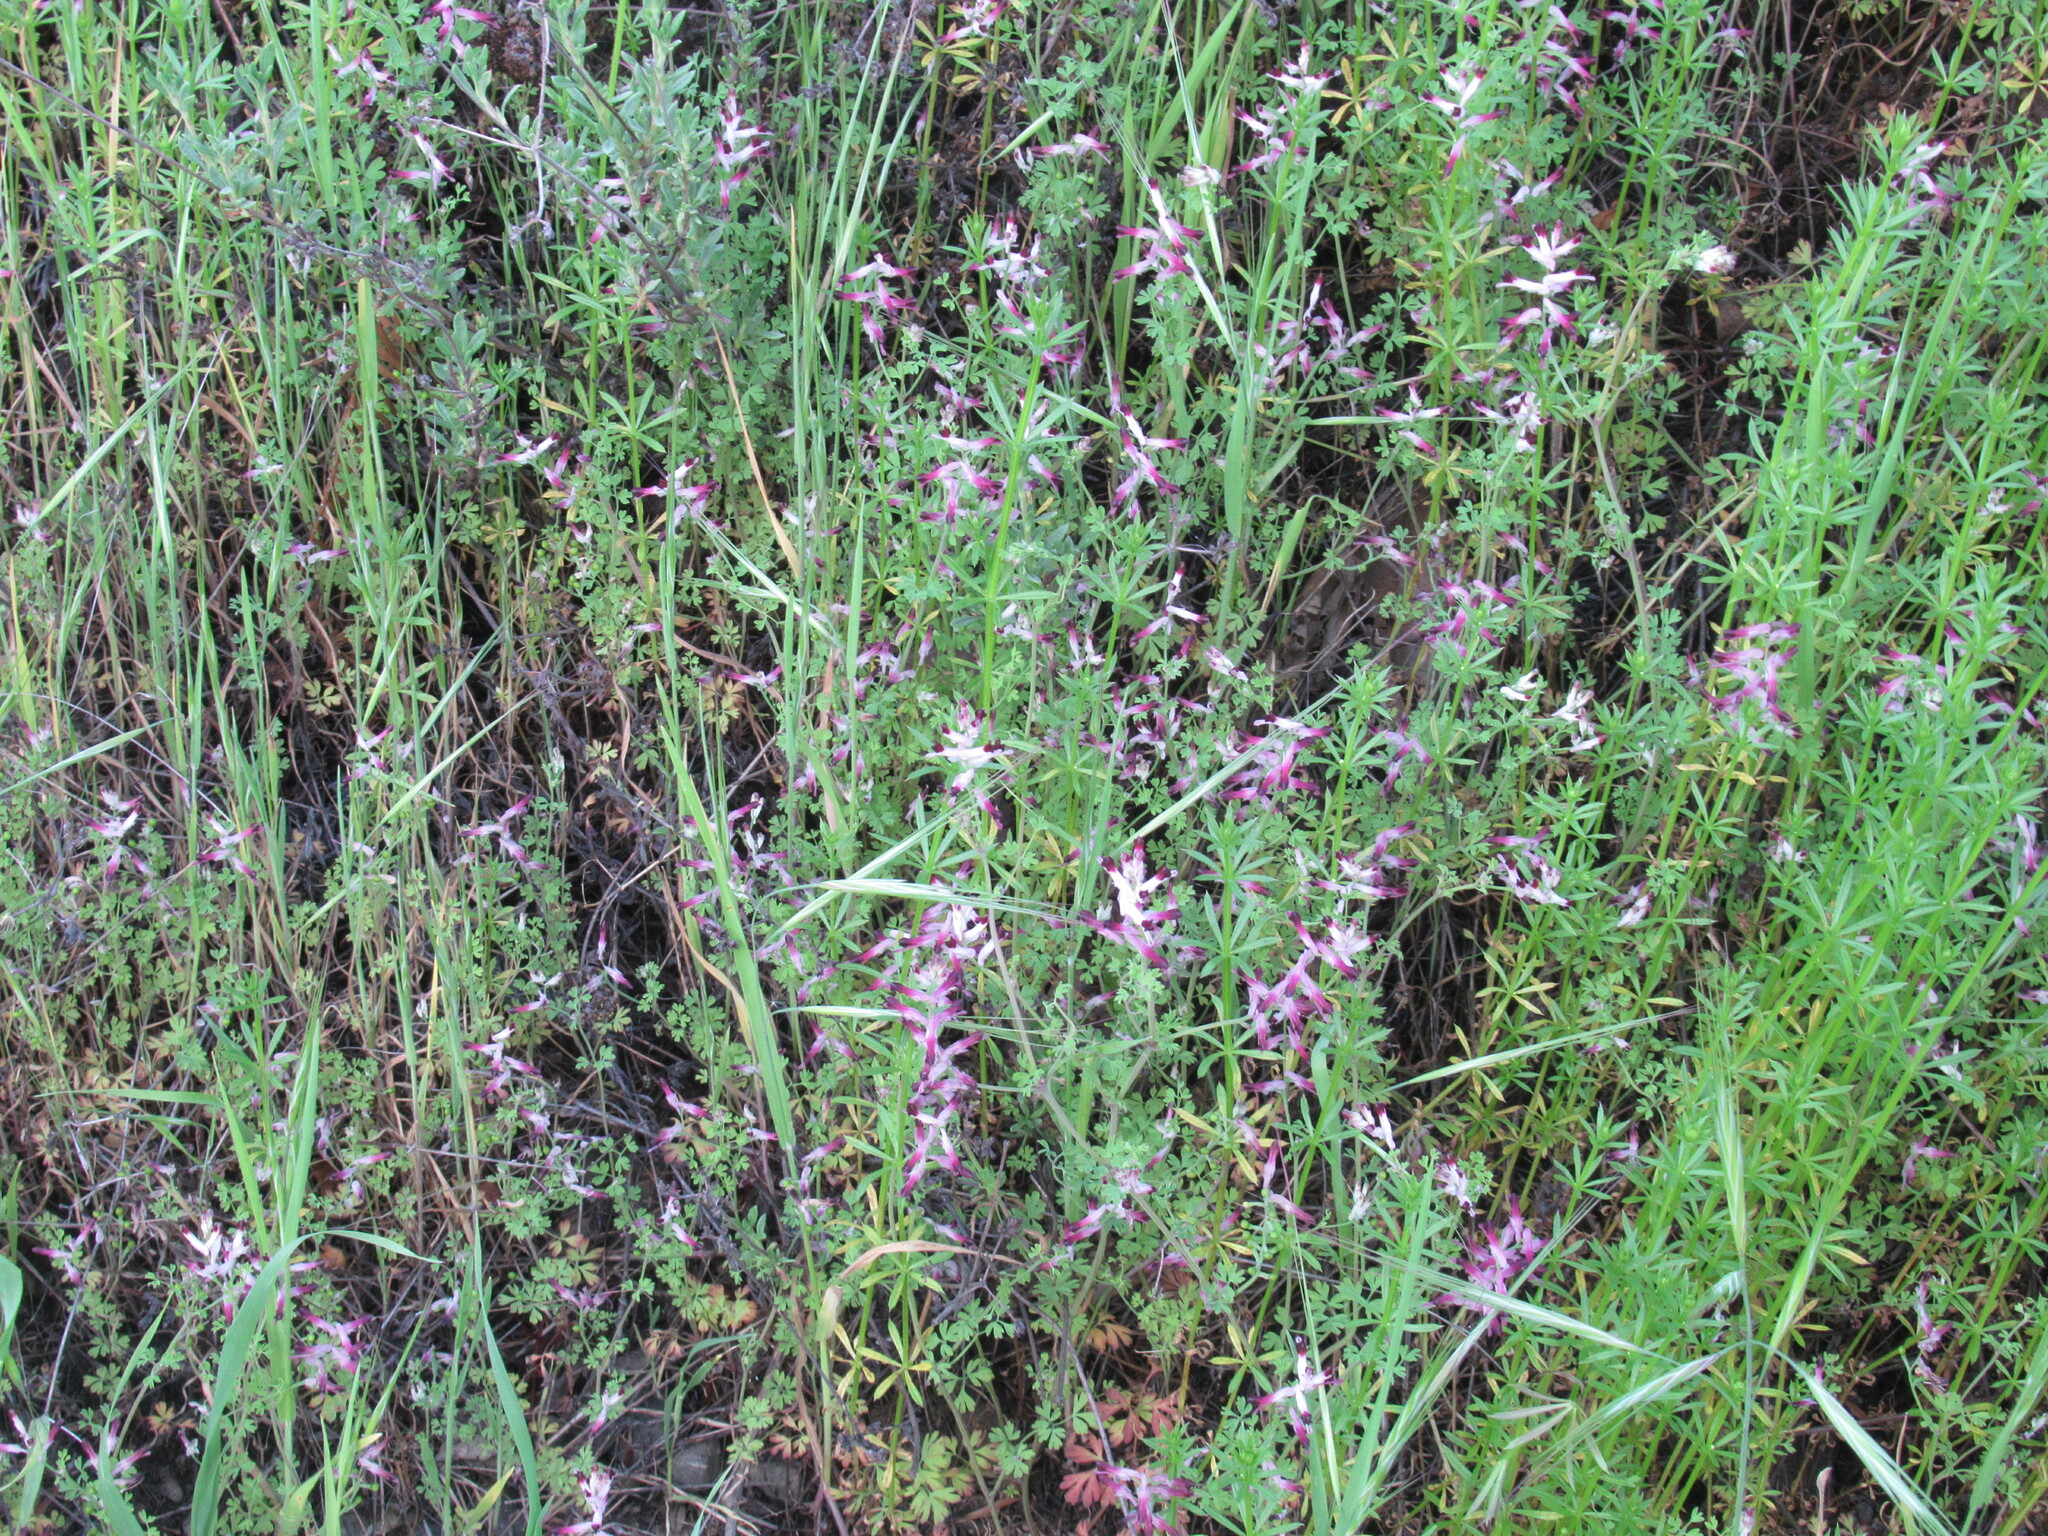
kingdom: Plantae
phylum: Tracheophyta
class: Magnoliopsida
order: Ranunculales
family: Papaveraceae
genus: Fumaria
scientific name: Fumaria muralis
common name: Common ramping-fumitory
